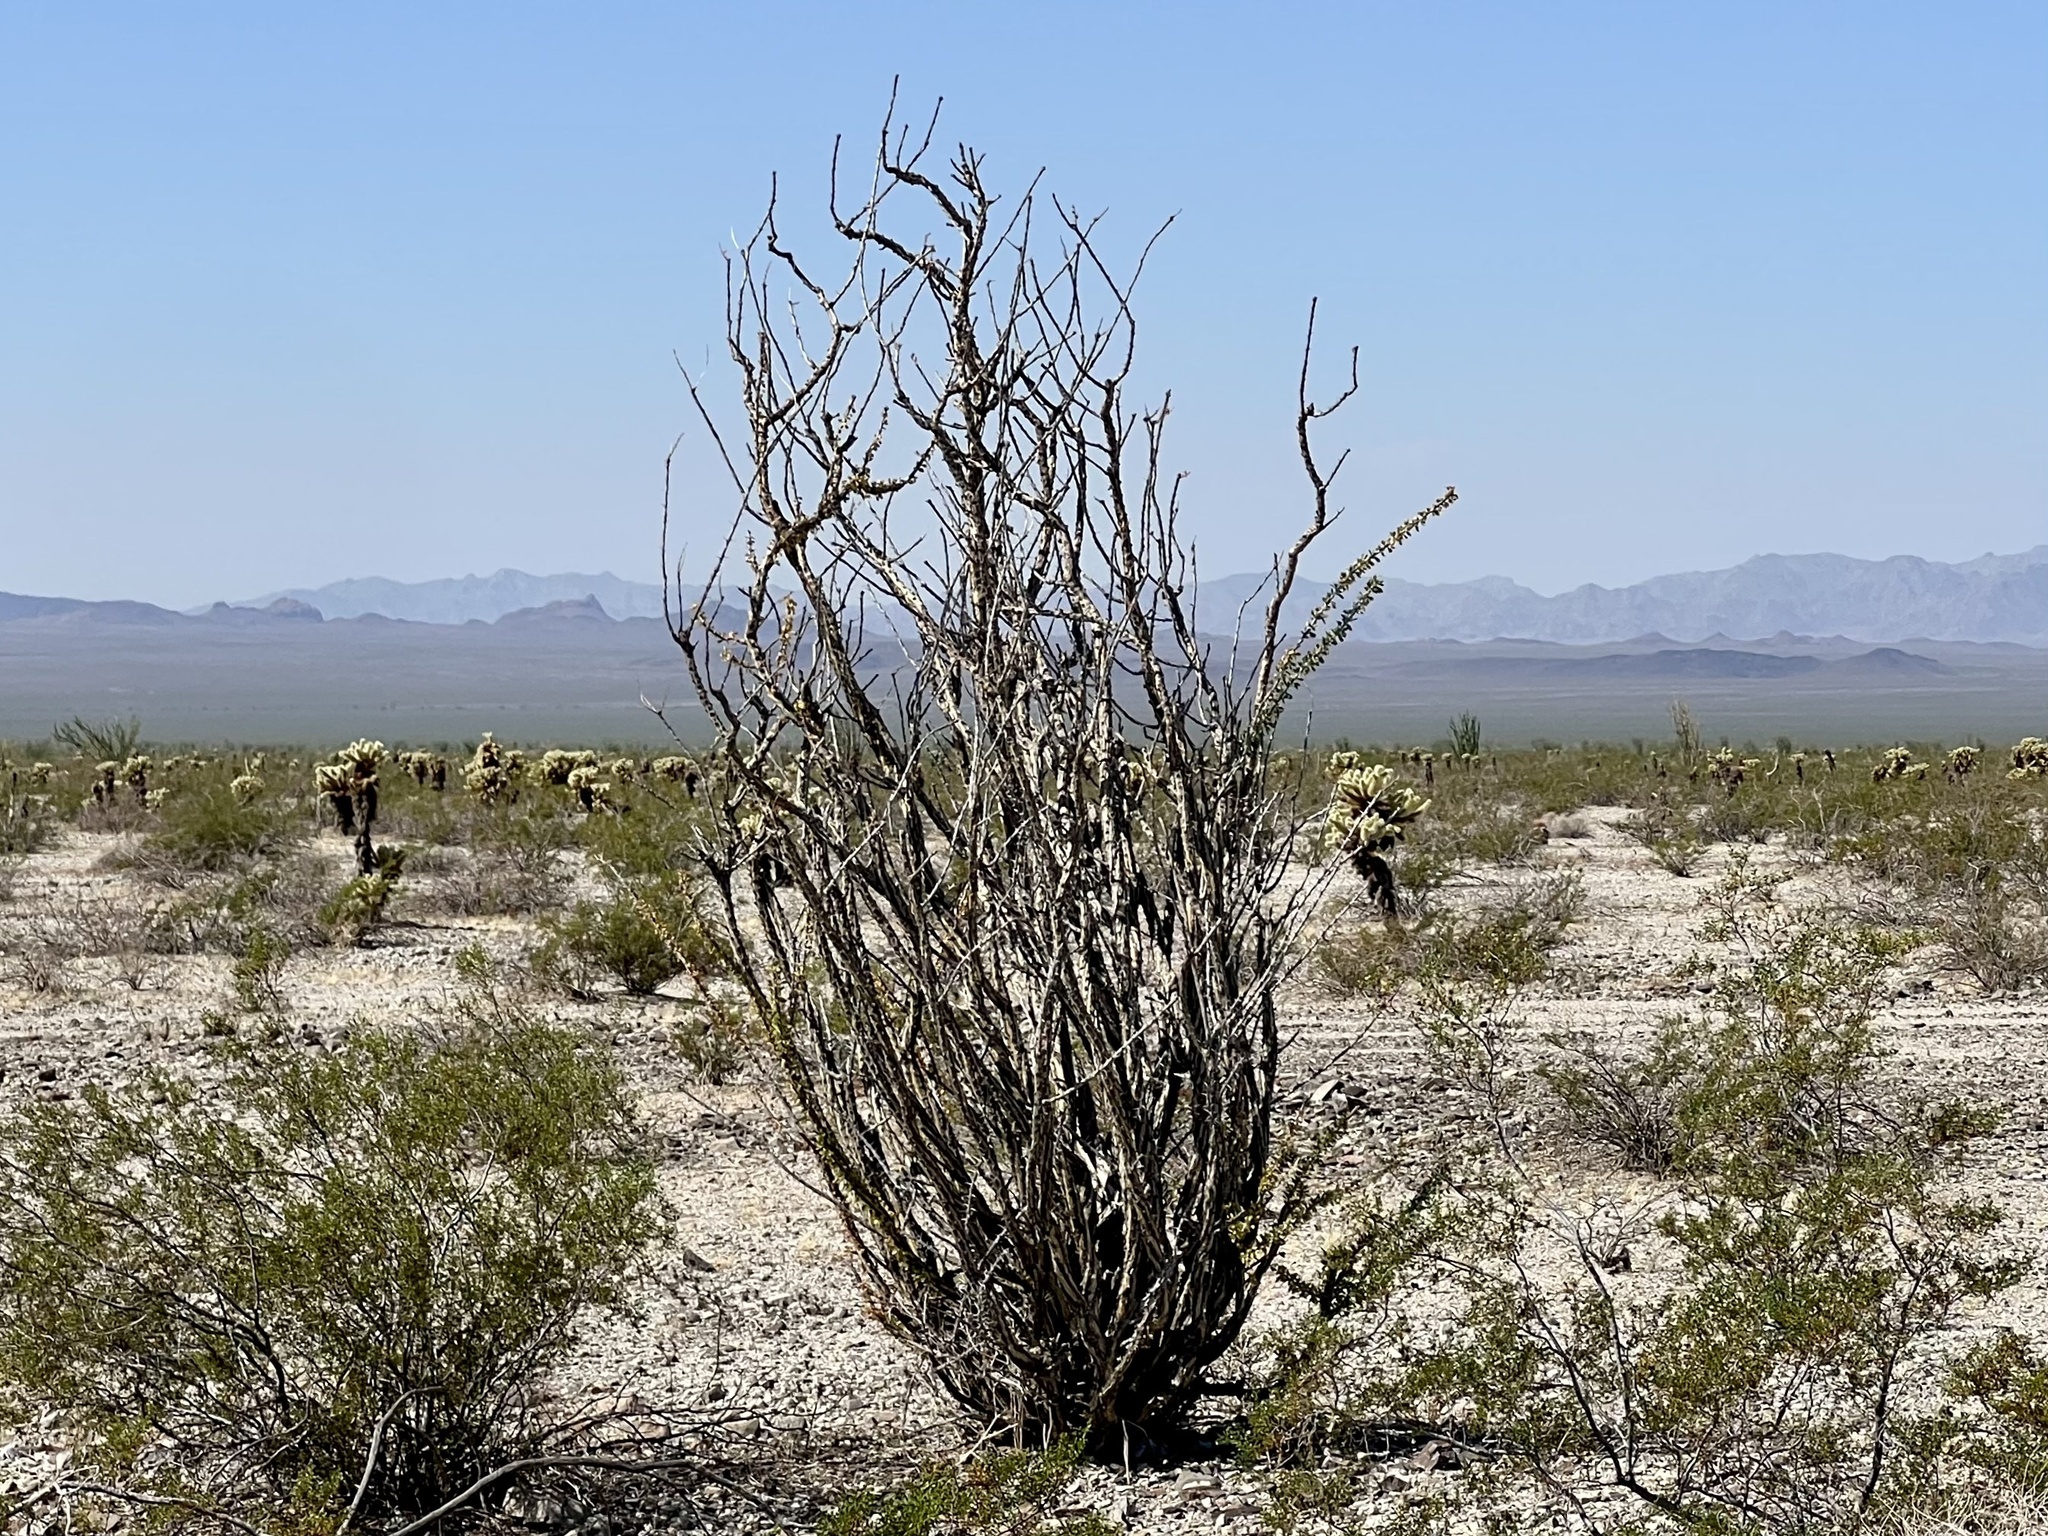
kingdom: Plantae
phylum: Tracheophyta
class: Magnoliopsida
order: Ericales
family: Fouquieriaceae
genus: Fouquieria
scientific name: Fouquieria splendens
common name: Vine-cactus
